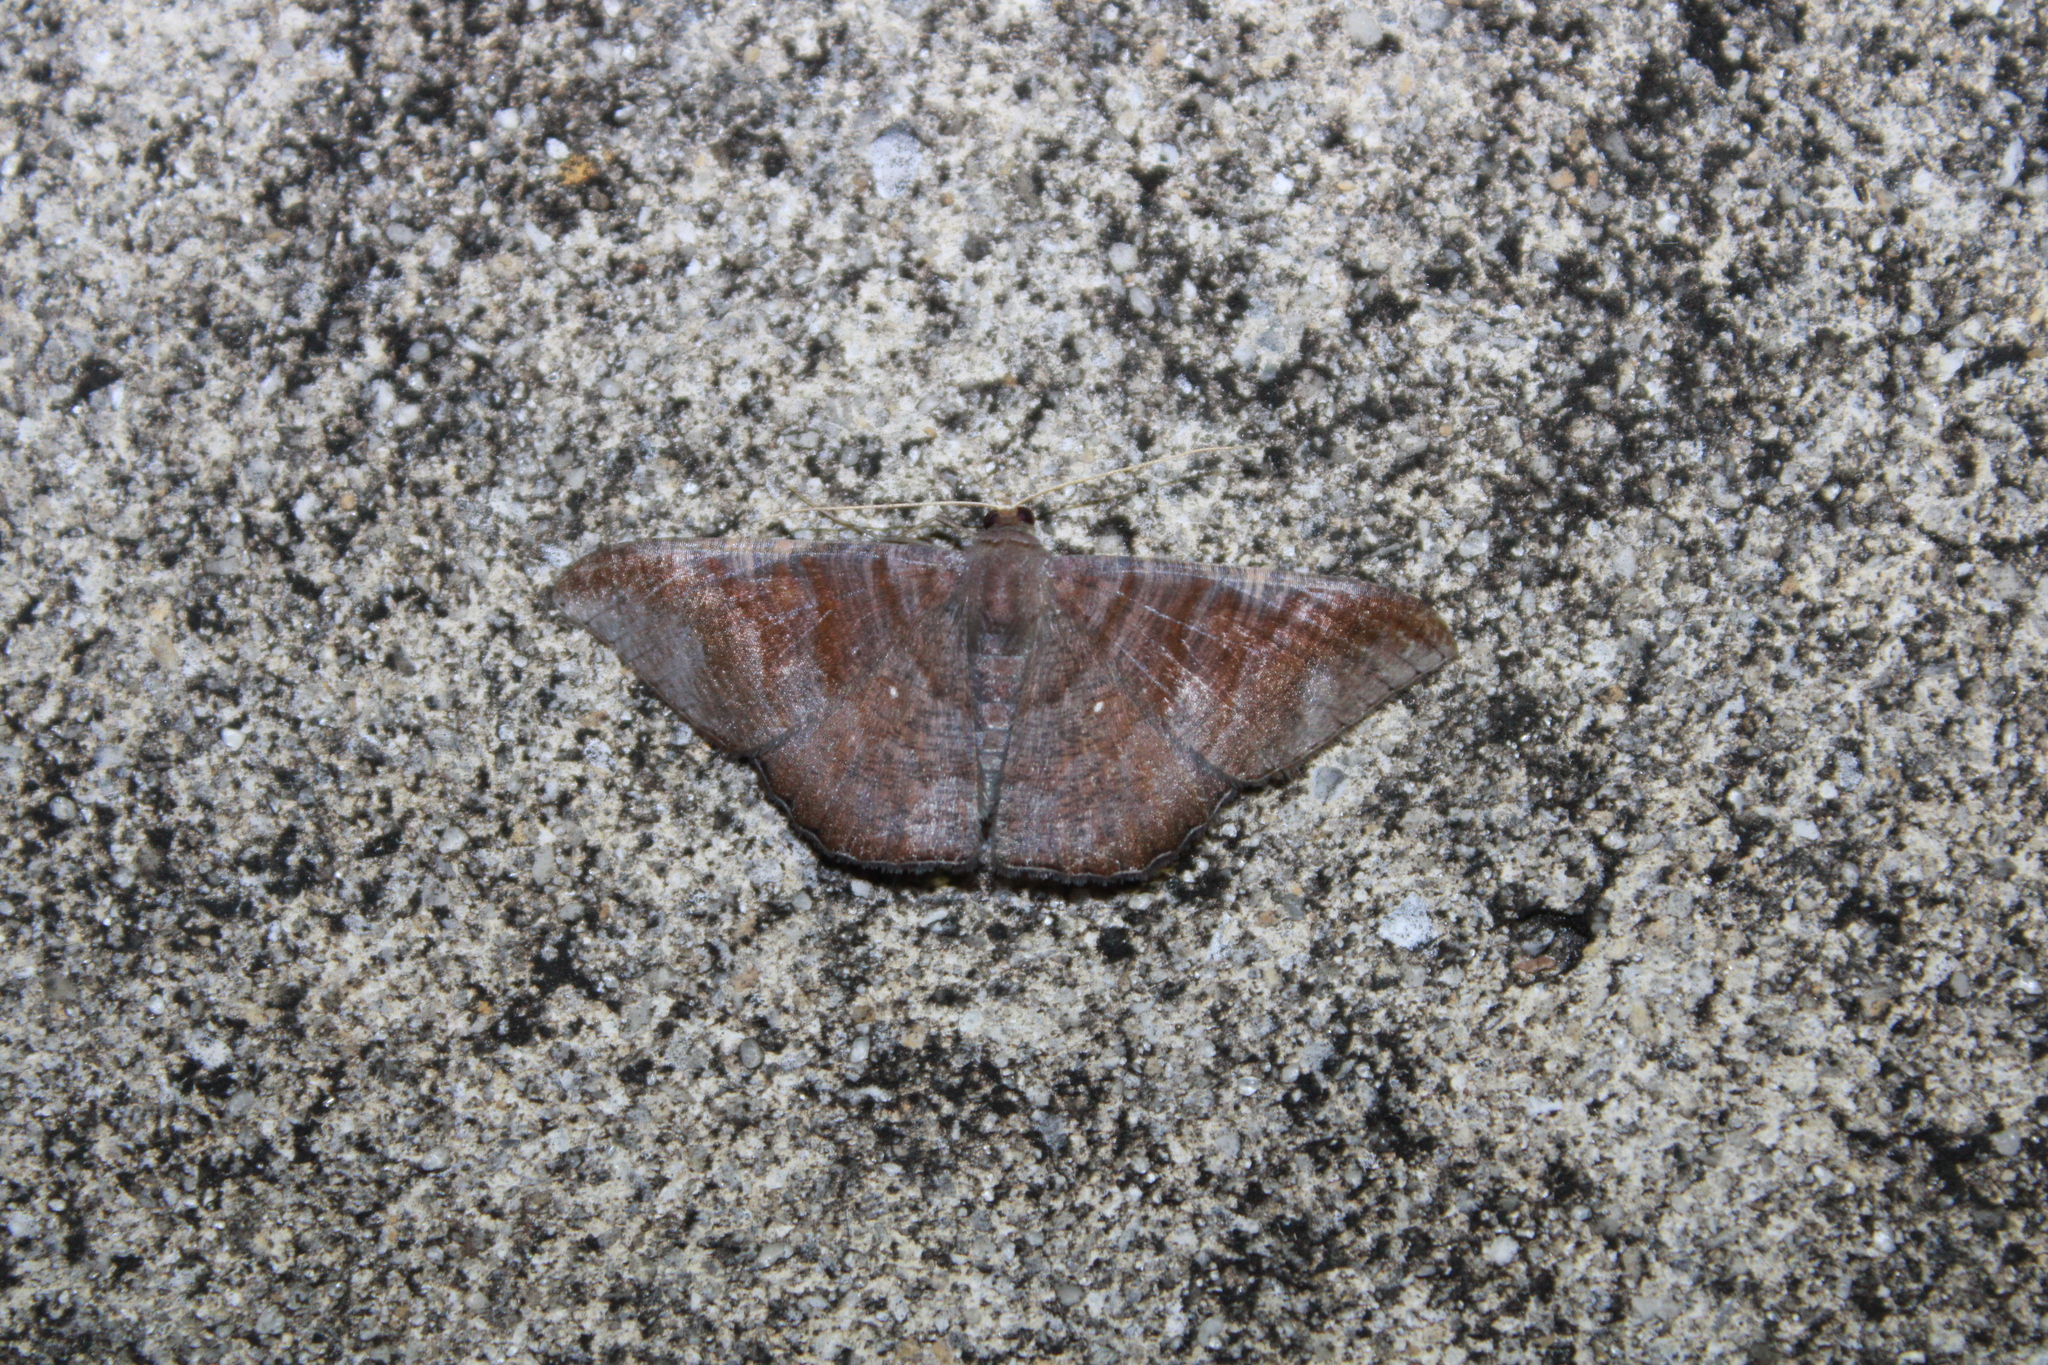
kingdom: Animalia
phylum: Arthropoda
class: Insecta
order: Lepidoptera
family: Geometridae
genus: Sphacelodes
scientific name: Sphacelodes vulneraria
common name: Looper moth
